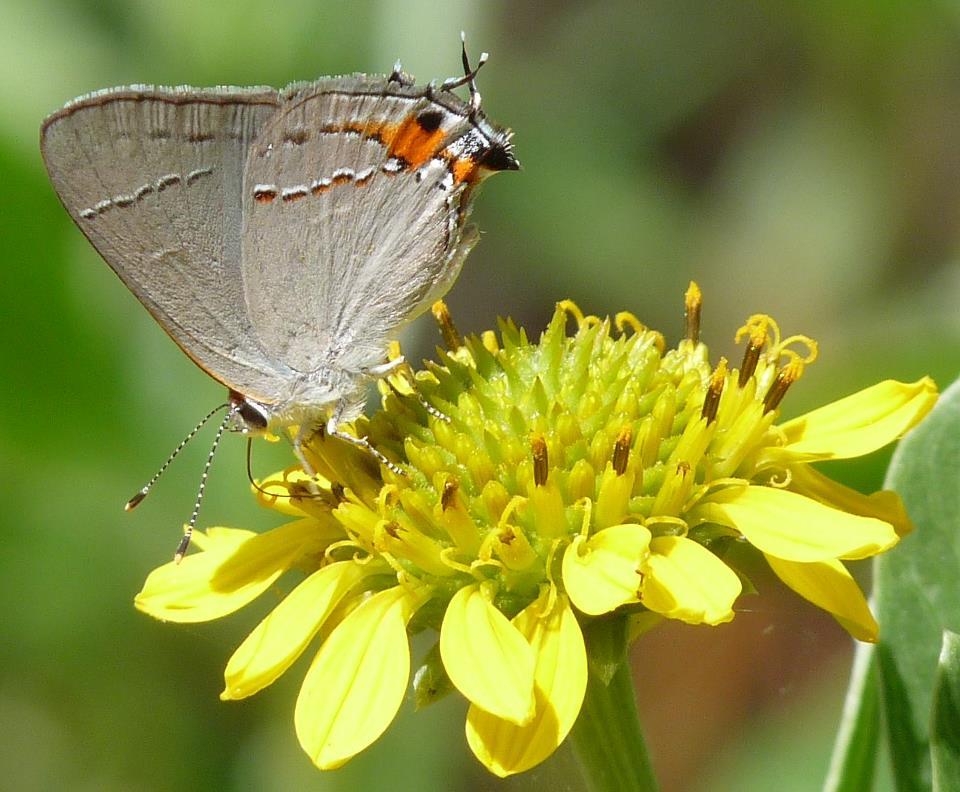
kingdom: Animalia
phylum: Arthropoda
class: Insecta
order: Lepidoptera
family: Lycaenidae
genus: Strymon
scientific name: Strymon melinus
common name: Gray hairstreak
